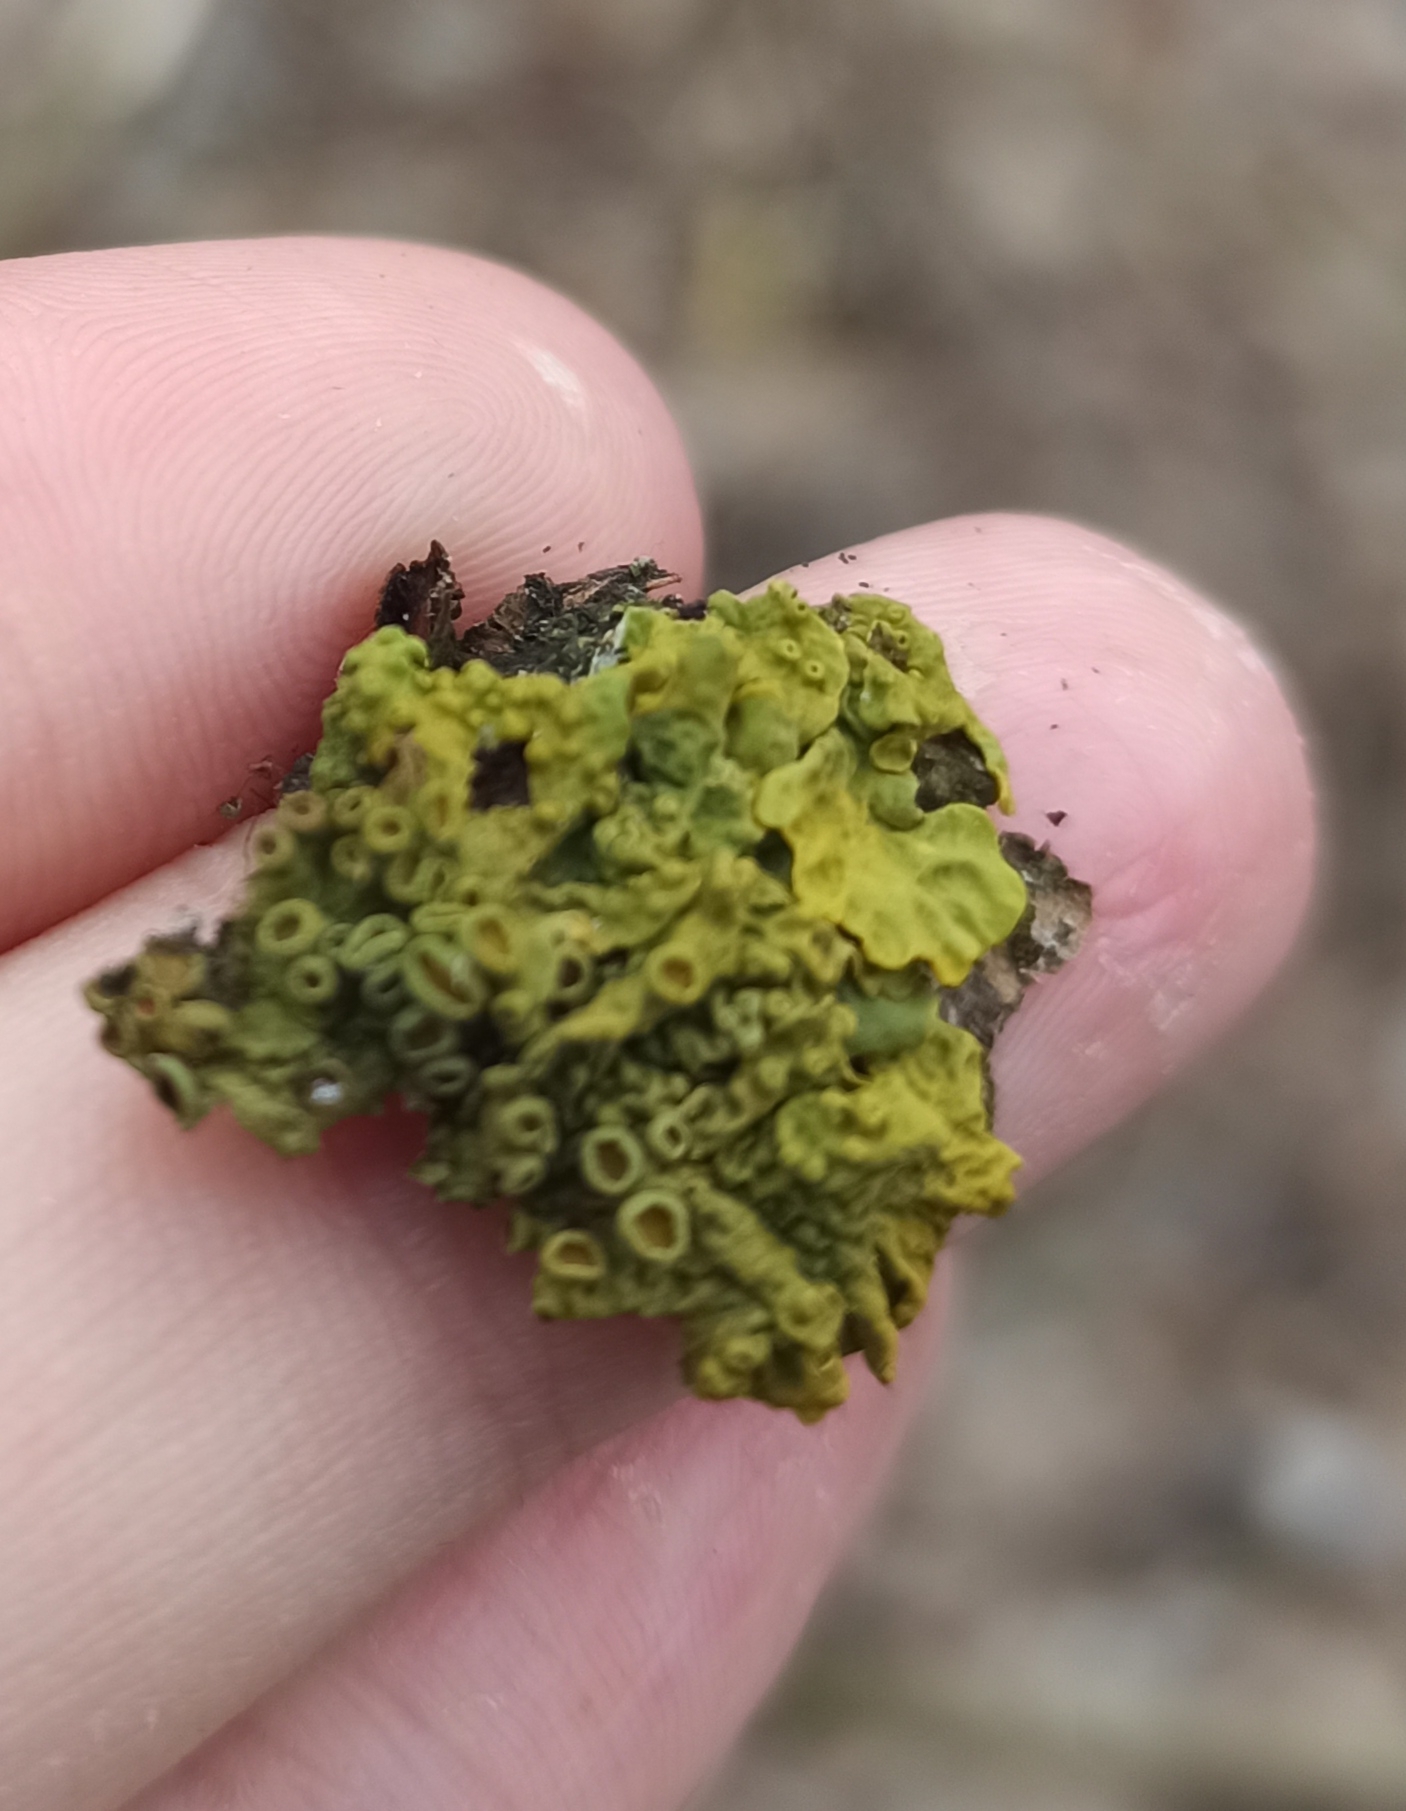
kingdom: Fungi
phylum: Ascomycota
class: Lecanoromycetes
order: Teloschistales
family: Teloschistaceae
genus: Xanthoria
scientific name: Xanthoria parietina
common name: Common orange lichen
